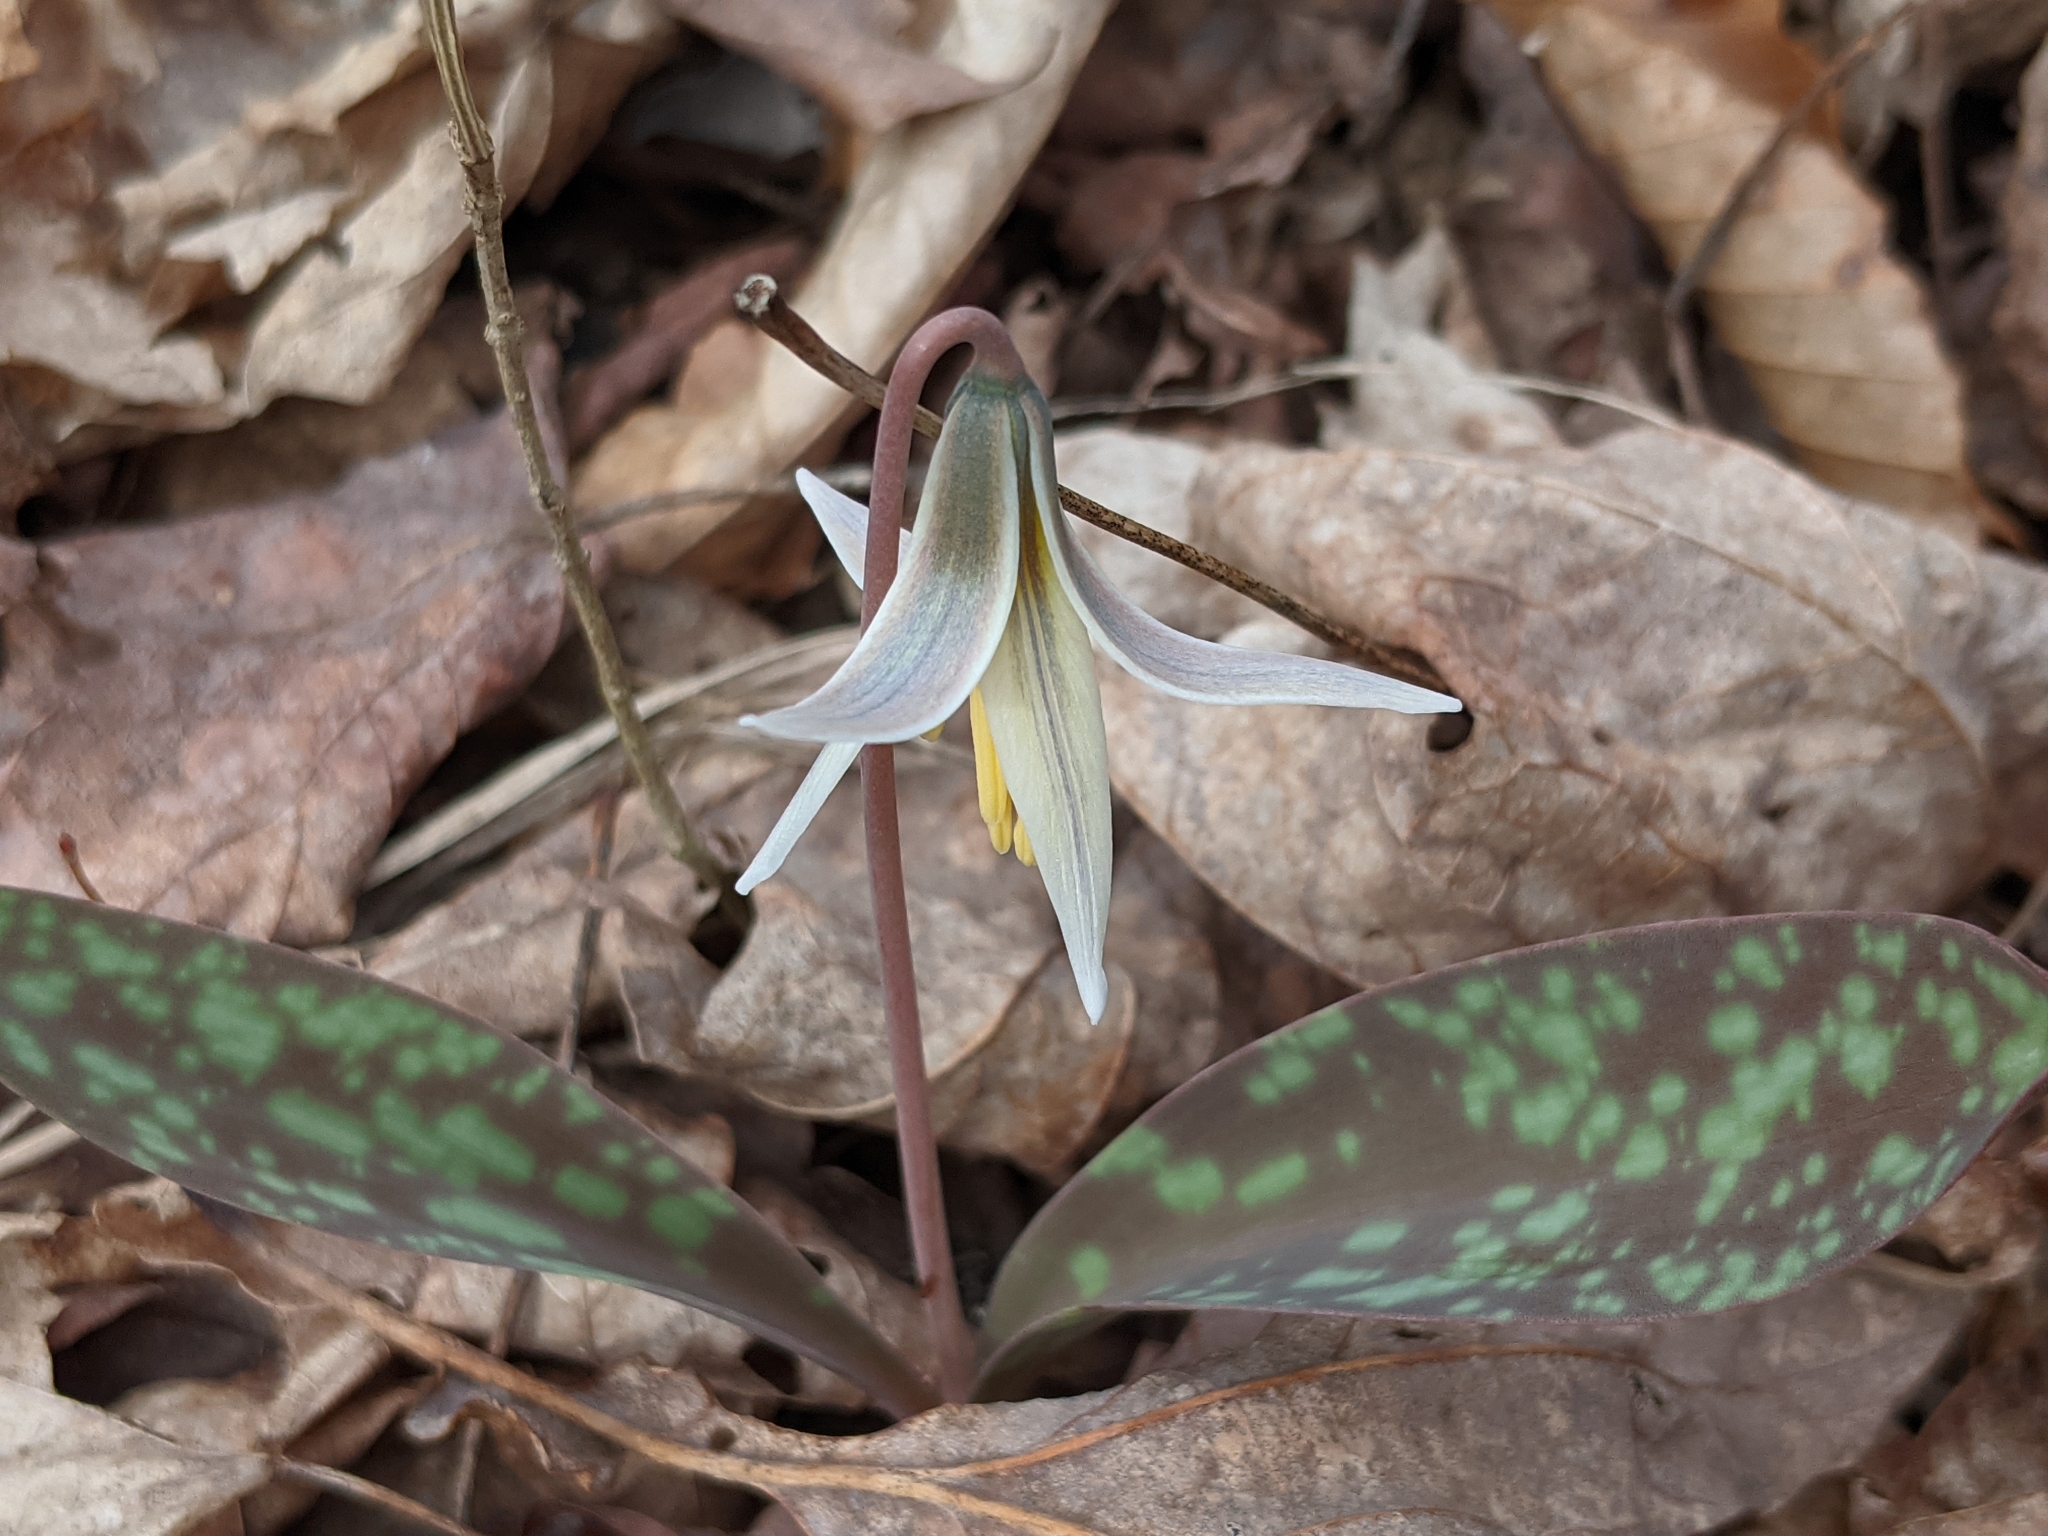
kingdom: Plantae
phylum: Tracheophyta
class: Liliopsida
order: Liliales
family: Liliaceae
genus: Erythronium
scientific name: Erythronium albidum
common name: White trout-lily
